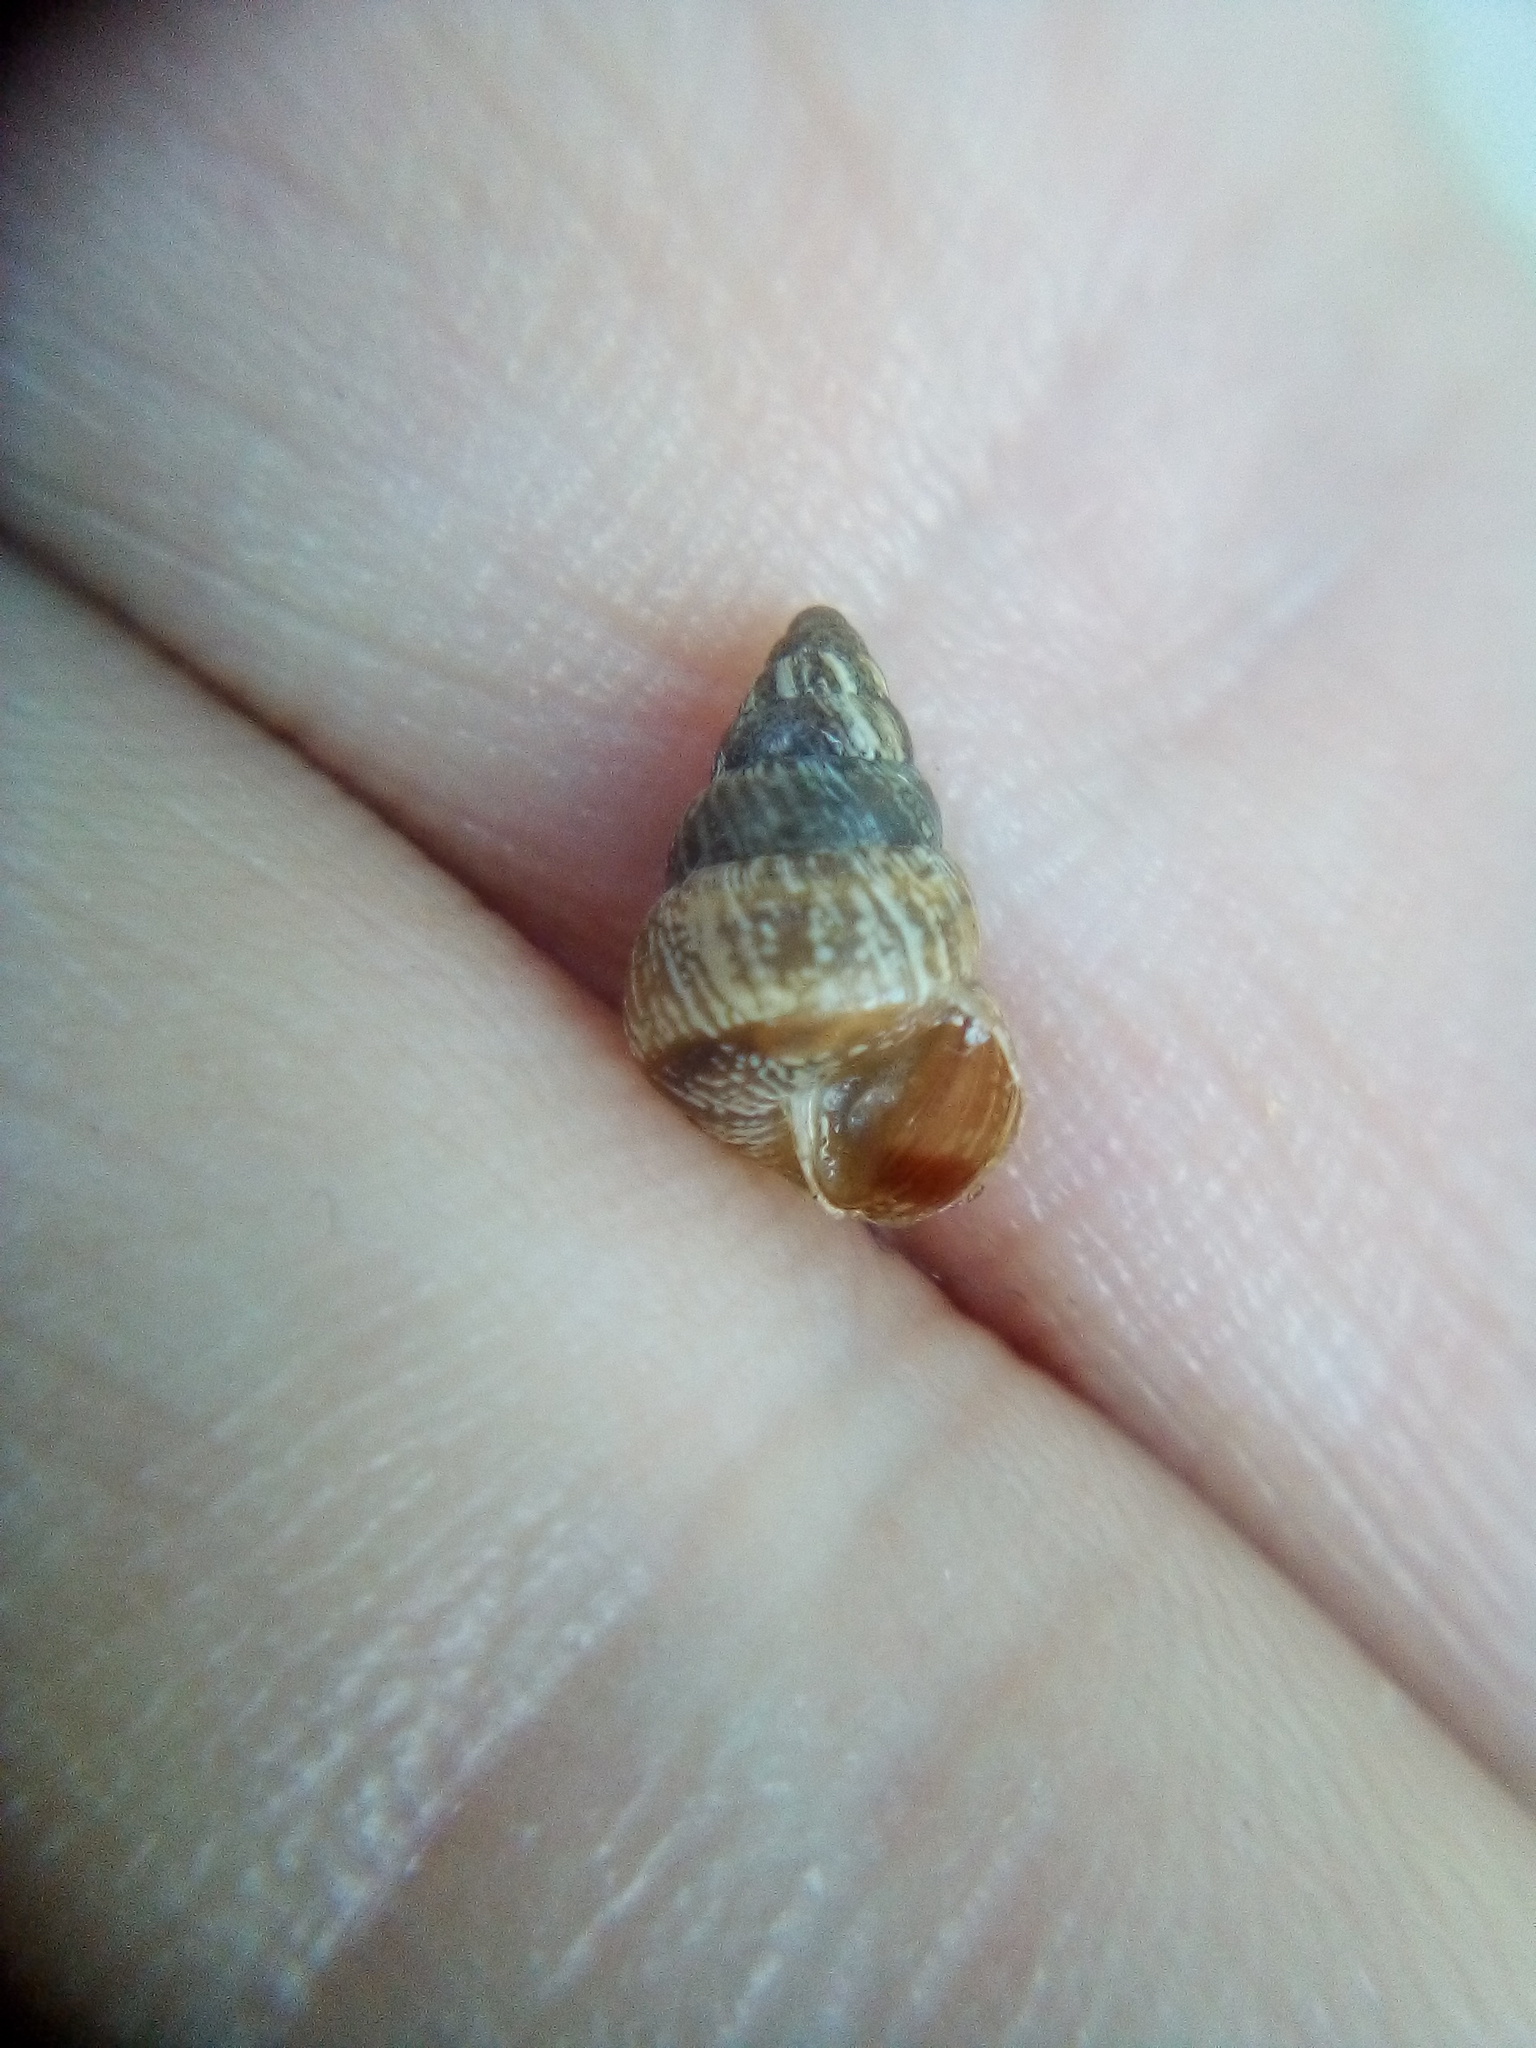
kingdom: Animalia
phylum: Mollusca
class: Gastropoda
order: Stylommatophora
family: Geomitridae
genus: Cochlicella
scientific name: Cochlicella barbara
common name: Potbellied helicellid
